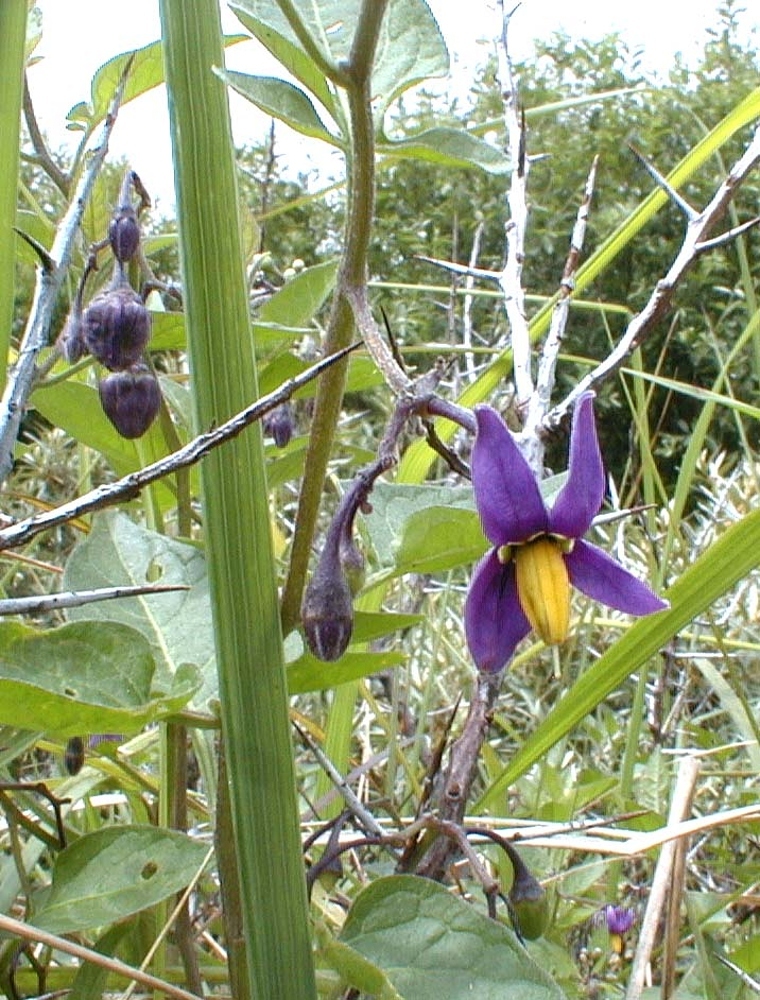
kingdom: Plantae
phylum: Tracheophyta
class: Magnoliopsida
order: Solanales
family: Solanaceae
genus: Solanum
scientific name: Solanum dulcamara
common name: Climbing nightshade
